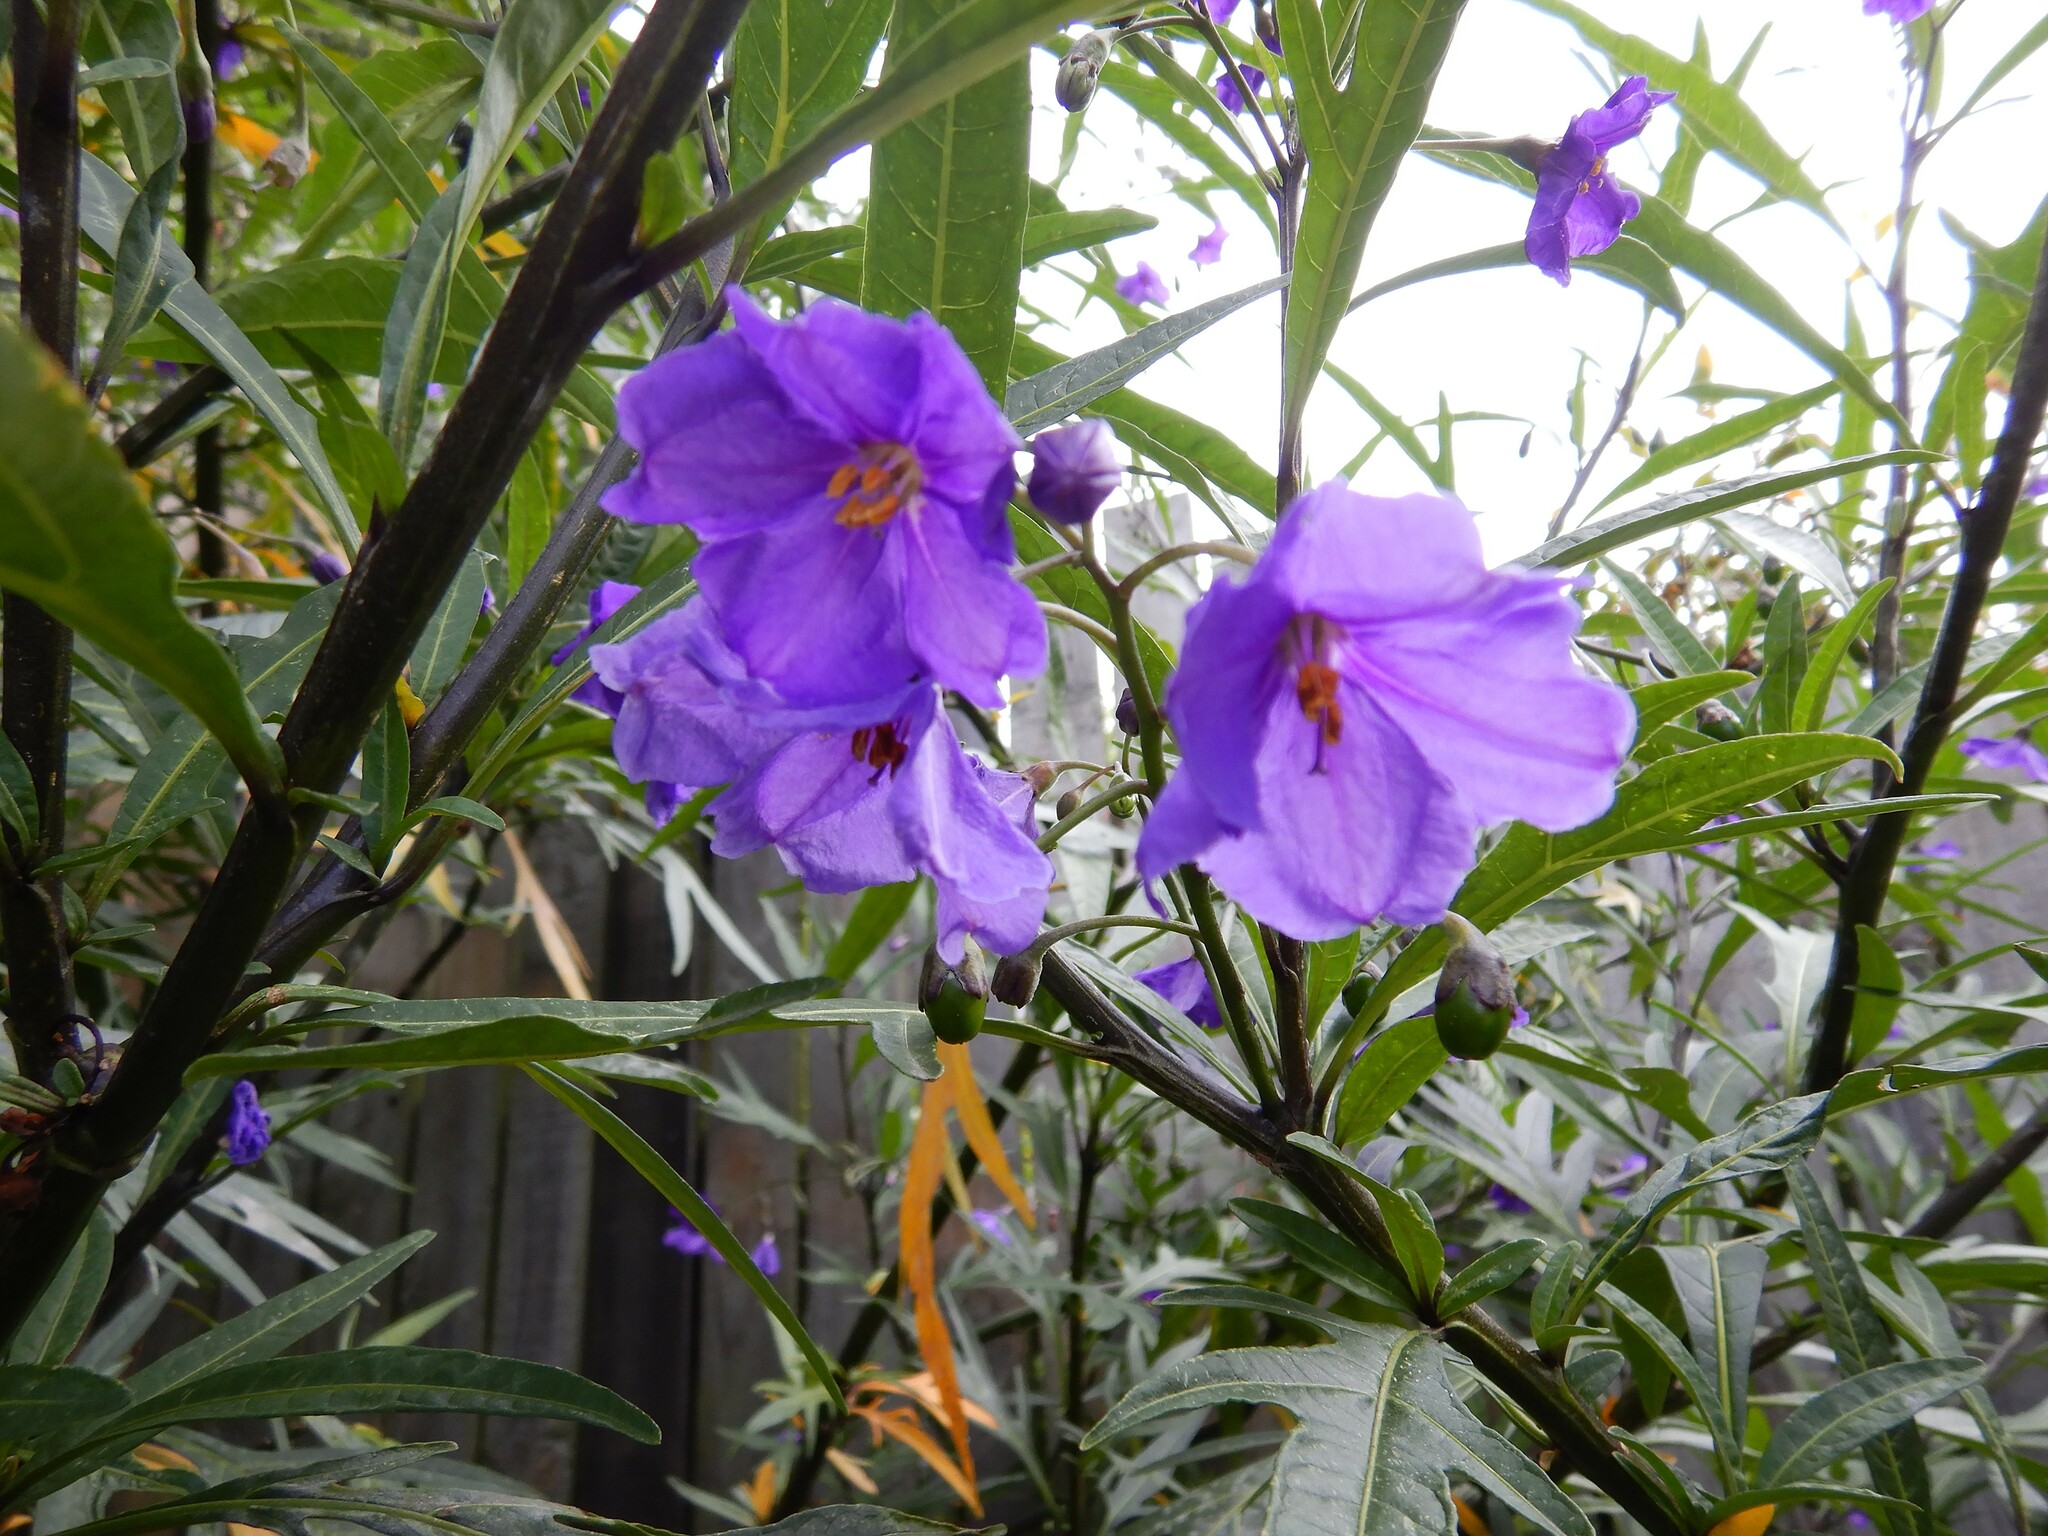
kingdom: Plantae
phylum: Tracheophyta
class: Magnoliopsida
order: Solanales
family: Solanaceae
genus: Solanum
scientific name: Solanum laciniatum
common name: Kangaroo-apple
